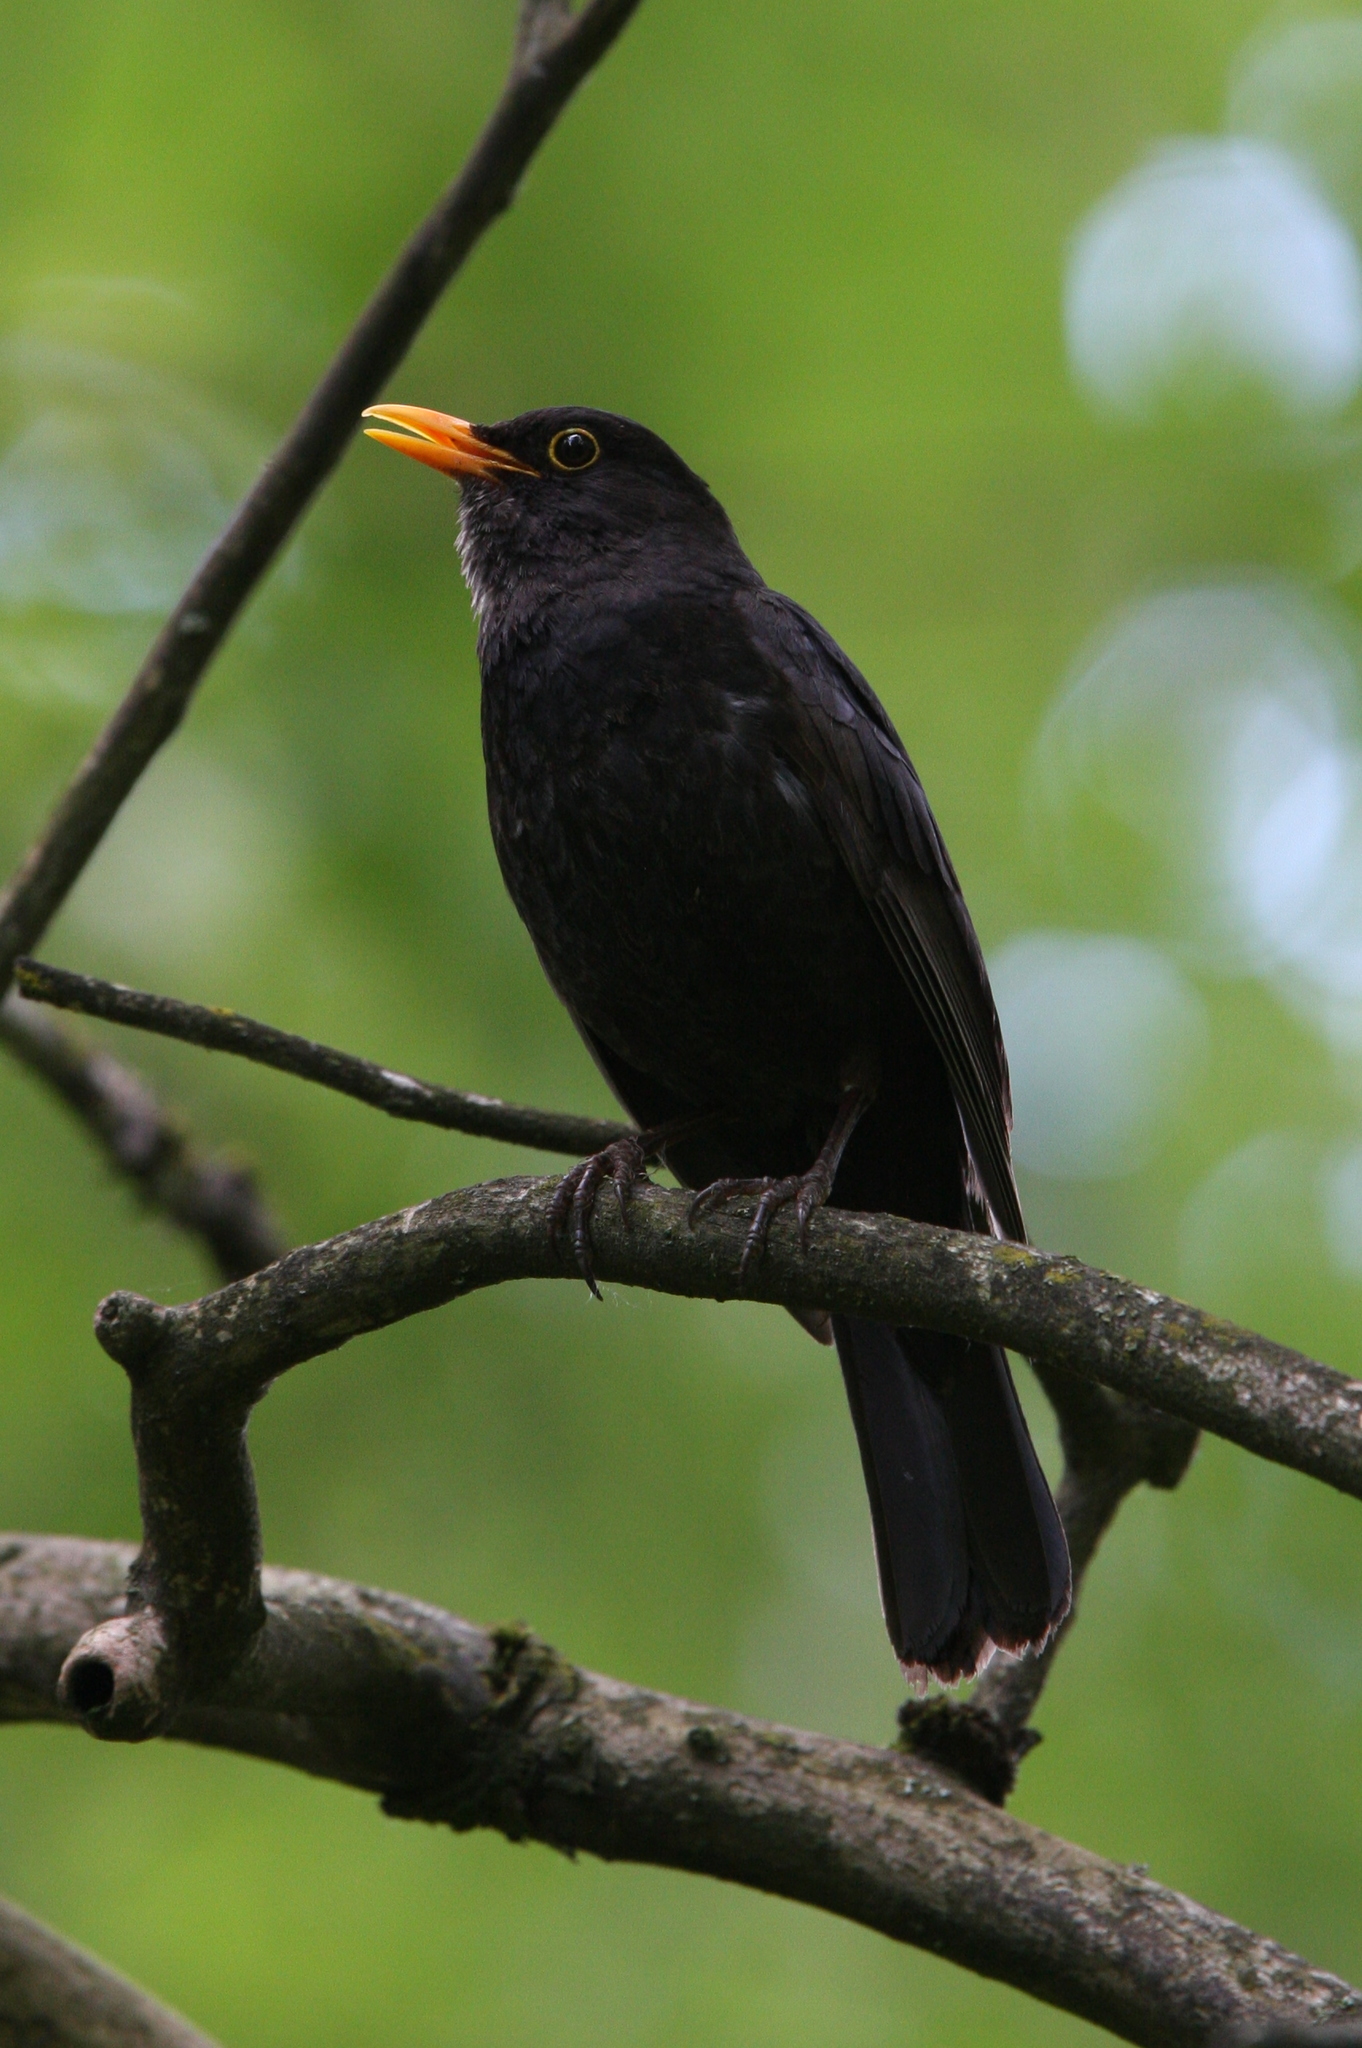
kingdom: Animalia
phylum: Chordata
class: Aves
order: Passeriformes
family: Turdidae
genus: Turdus
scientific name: Turdus merula
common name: Common blackbird
